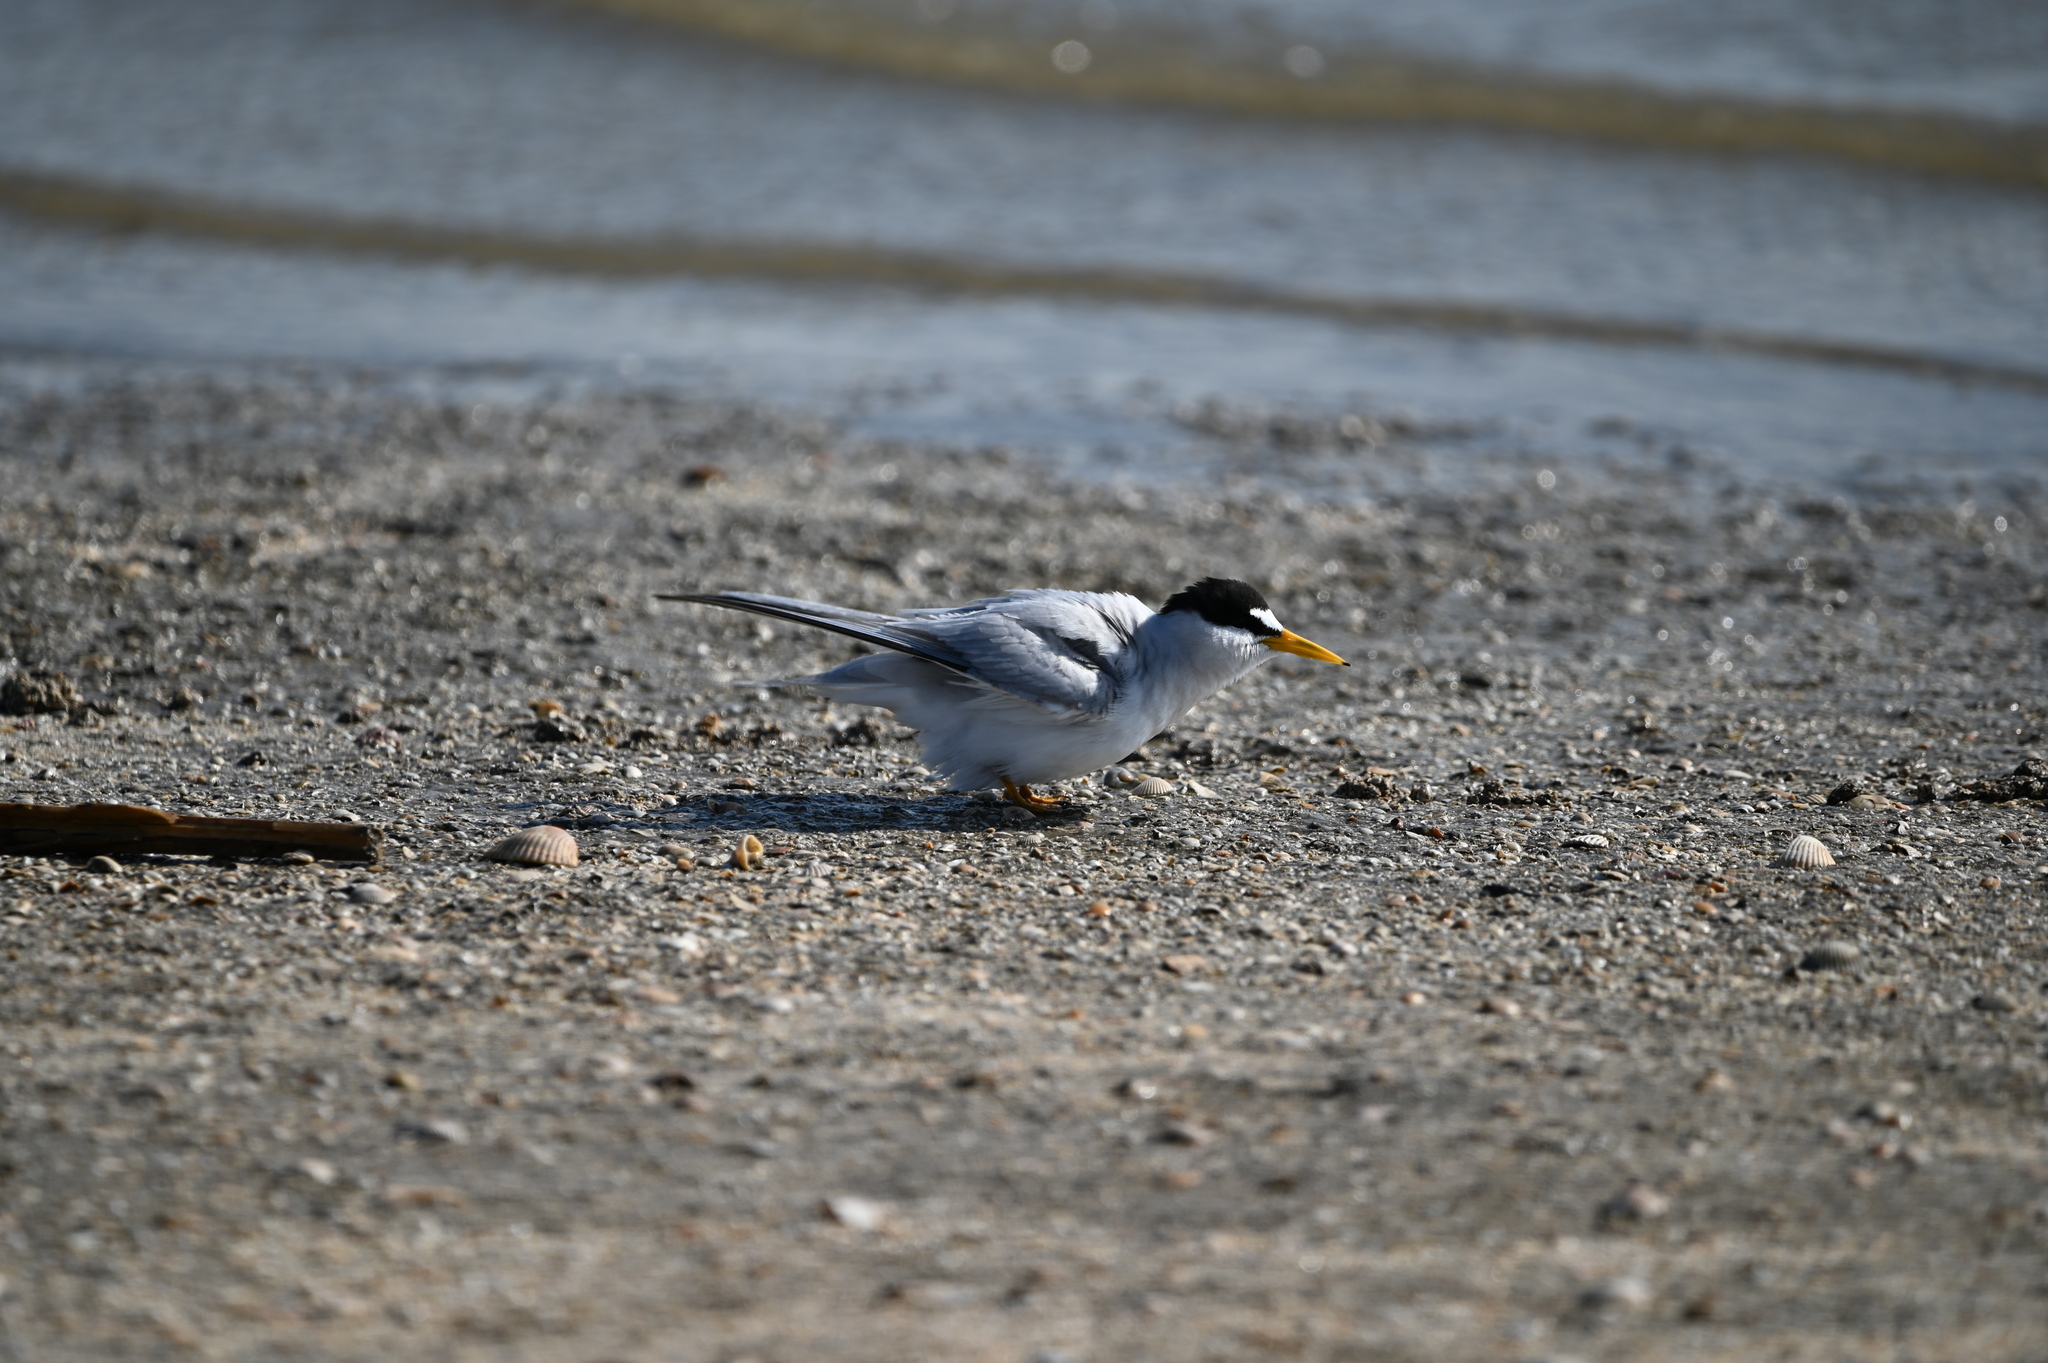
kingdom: Animalia
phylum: Chordata
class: Aves
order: Charadriiformes
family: Laridae
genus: Sternula
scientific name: Sternula antillarum
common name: Least tern
